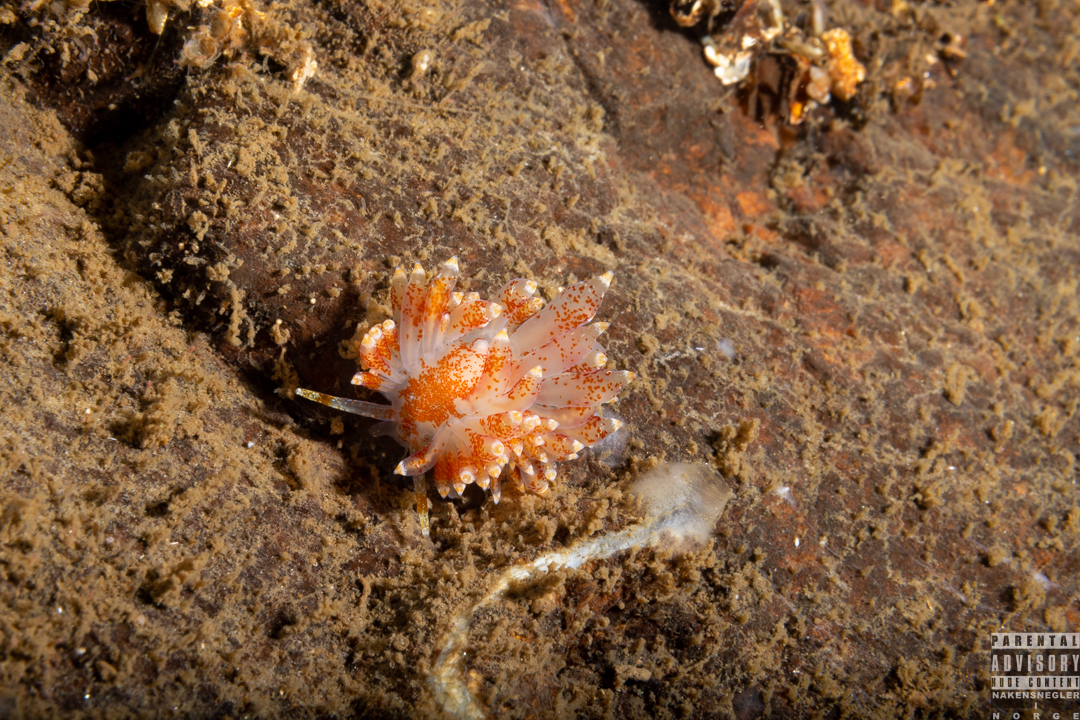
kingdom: Animalia
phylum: Mollusca
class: Gastropoda
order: Nudibranchia
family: Eubranchidae
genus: Amphorina
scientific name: Amphorina pallida
